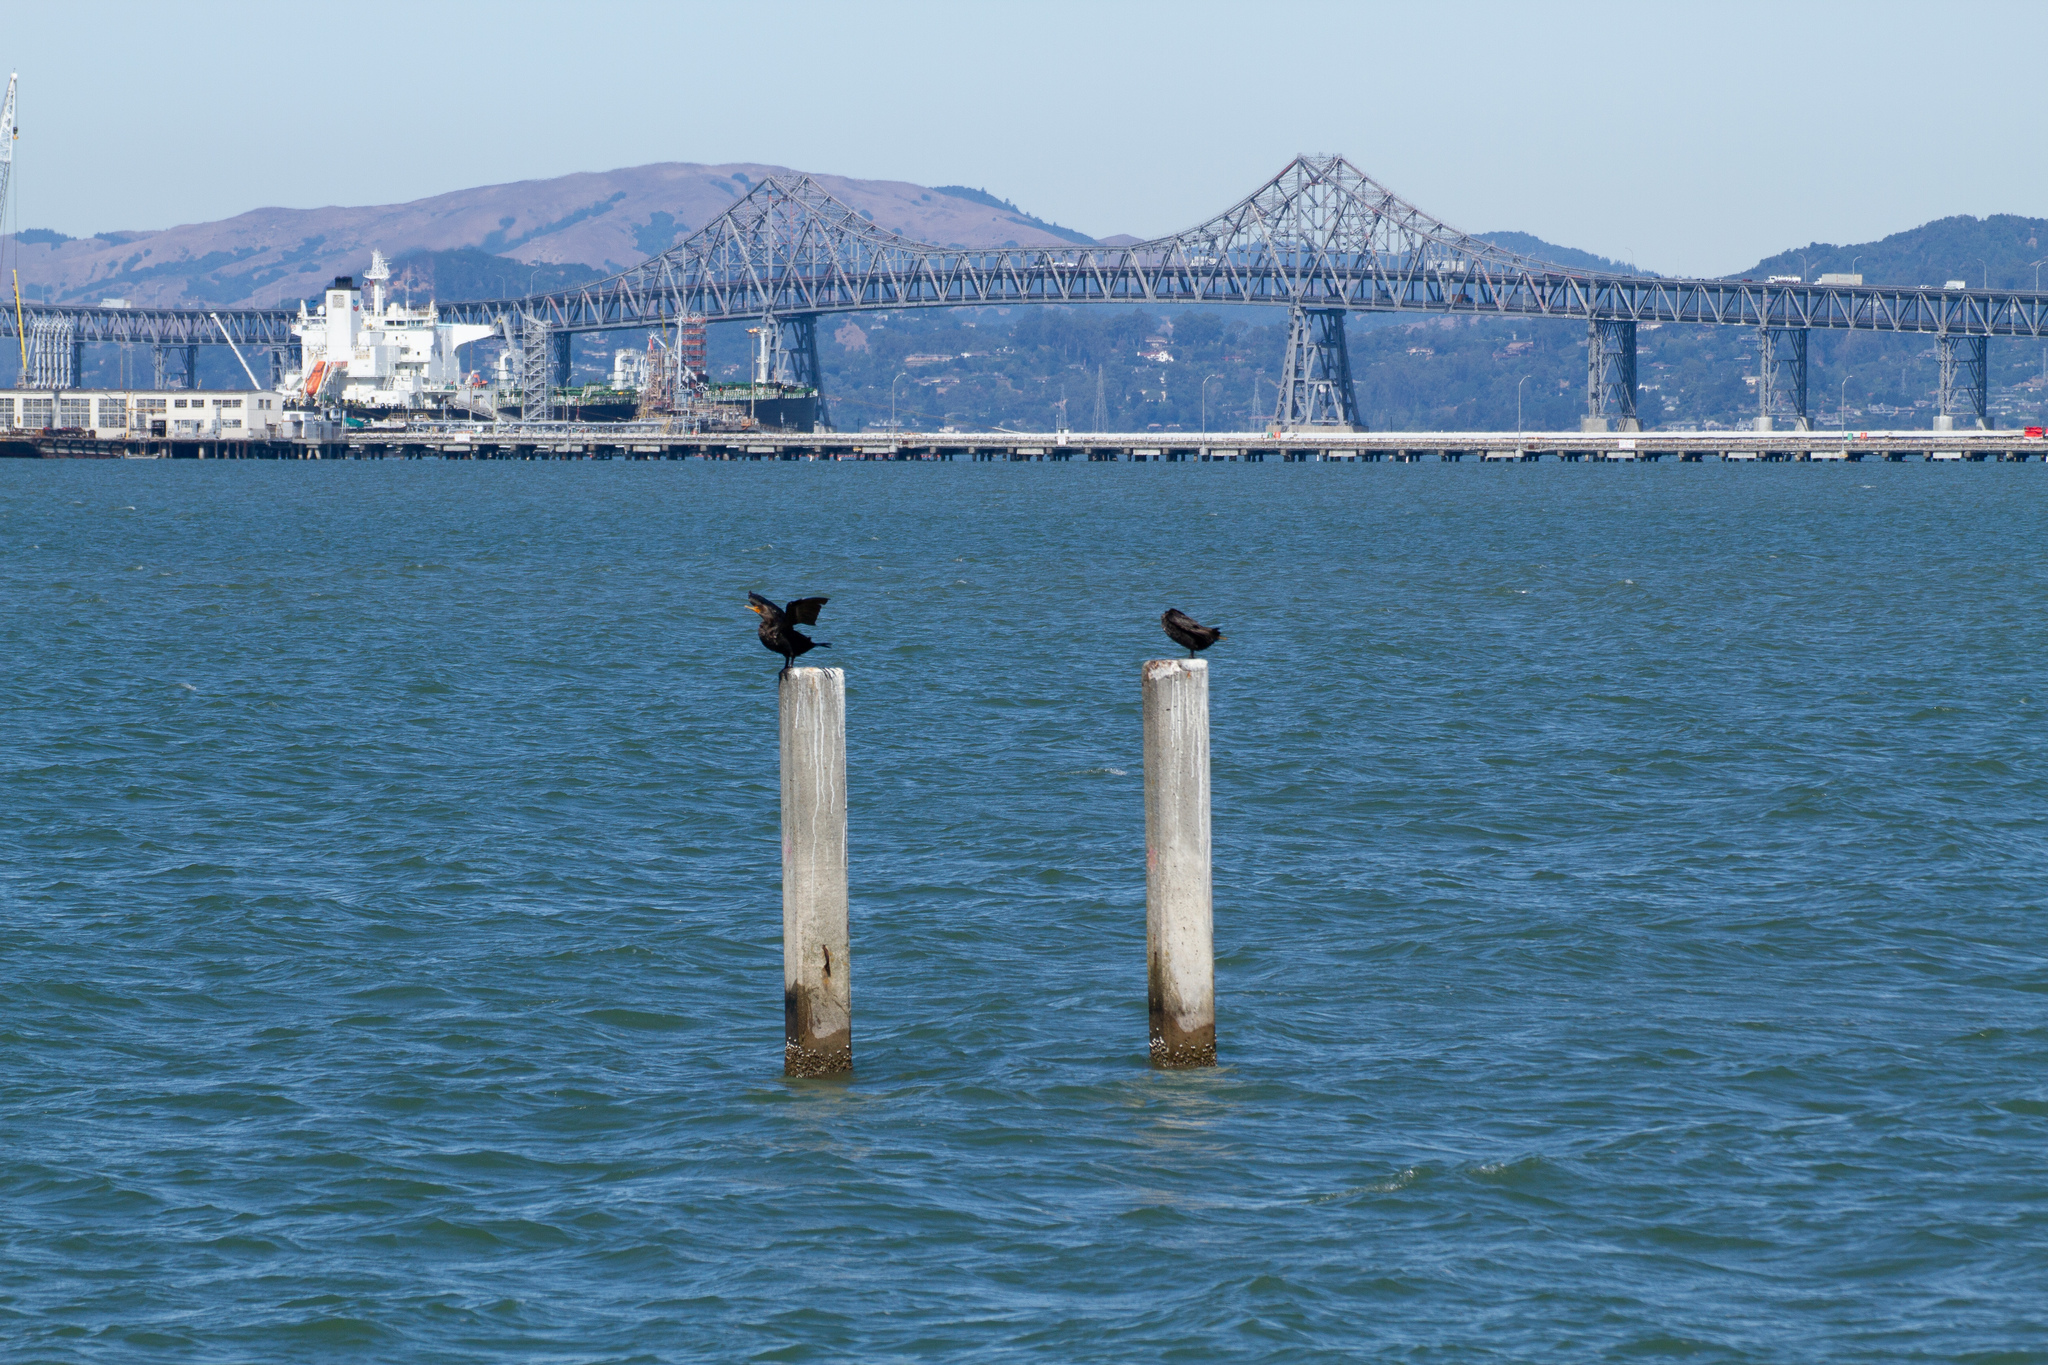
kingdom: Animalia
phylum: Chordata
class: Aves
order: Suliformes
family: Phalacrocoracidae
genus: Phalacrocorax
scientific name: Phalacrocorax auritus
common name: Double-crested cormorant
